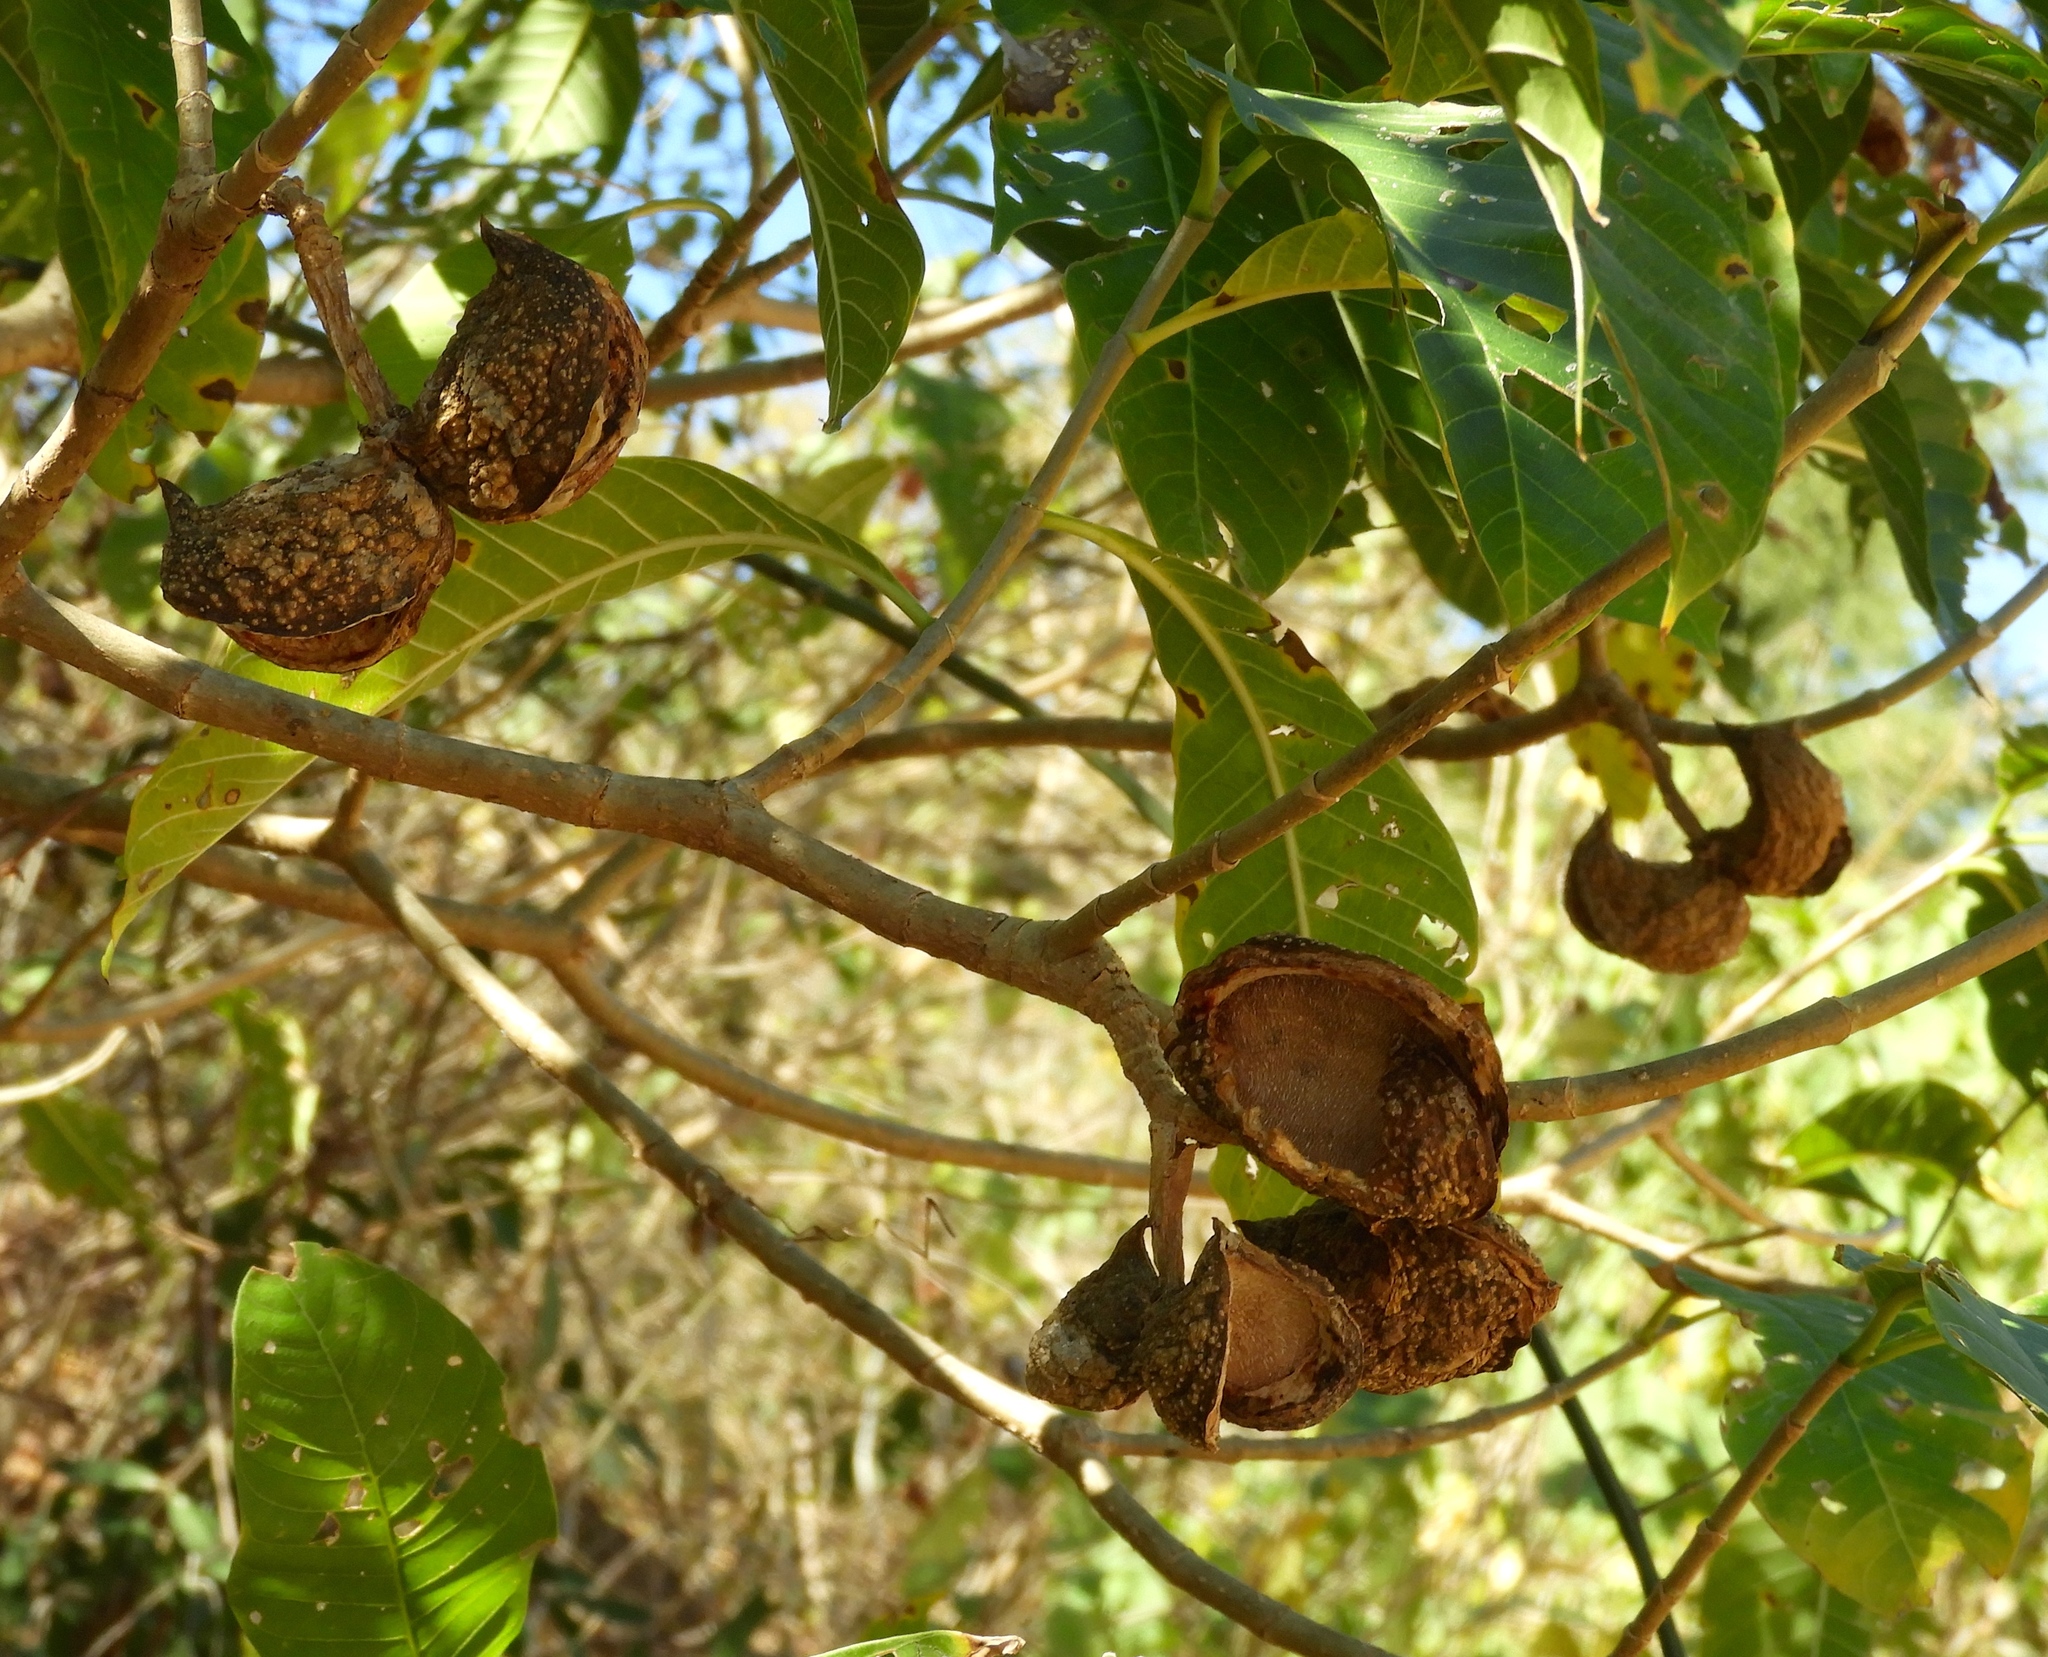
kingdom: Plantae
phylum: Tracheophyta
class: Magnoliopsida
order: Gentianales
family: Apocynaceae
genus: Tabernaemontana
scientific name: Tabernaemontana tomentosa
